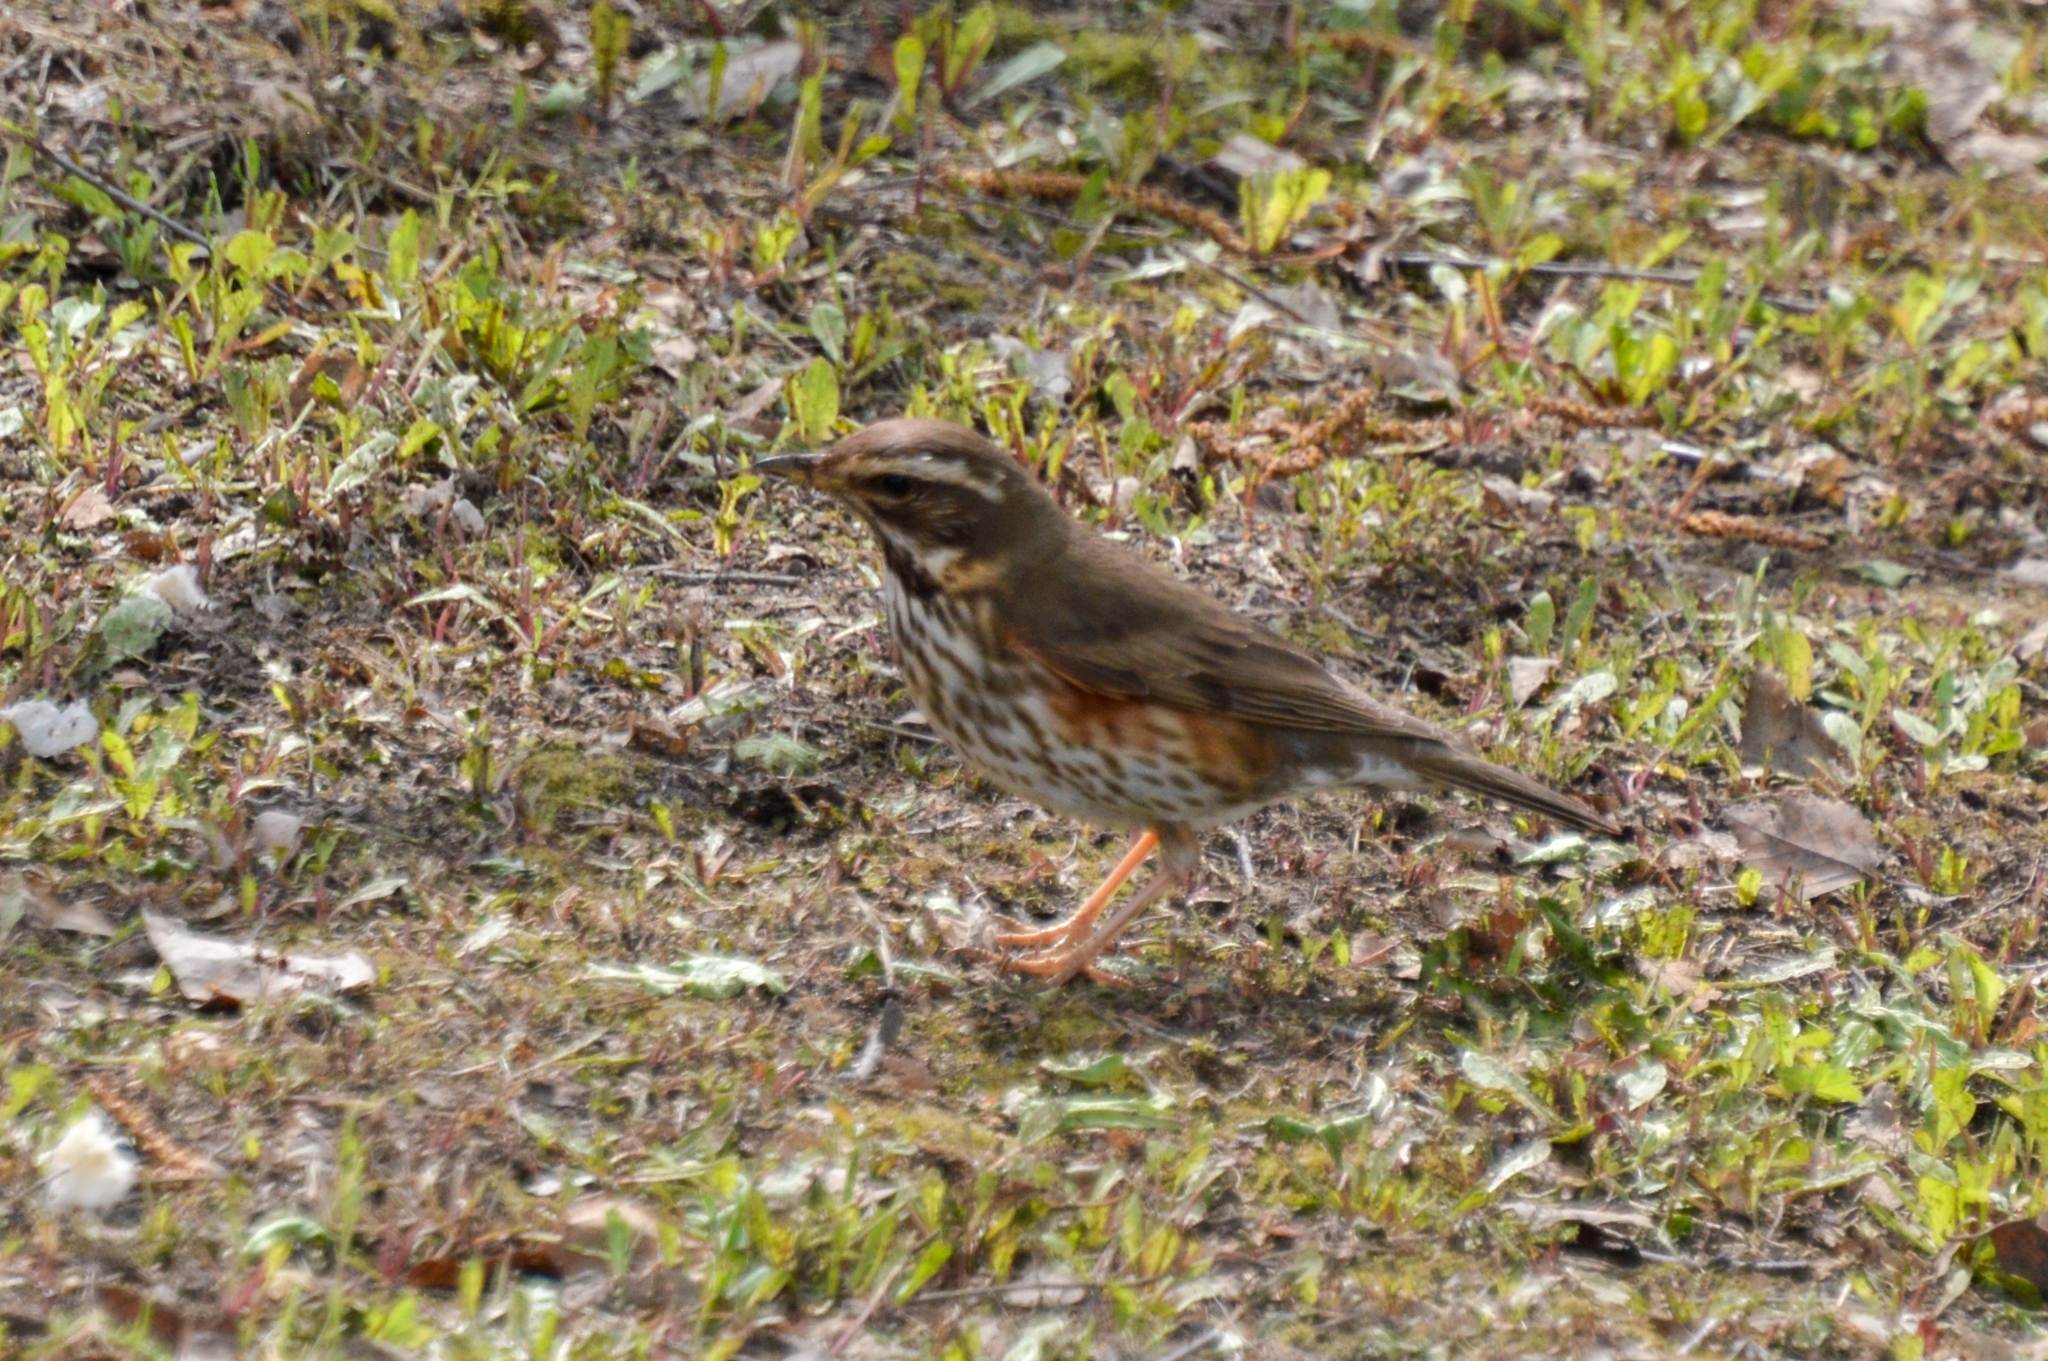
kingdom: Animalia
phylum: Chordata
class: Aves
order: Passeriformes
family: Turdidae
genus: Turdus
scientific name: Turdus iliacus
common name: Redwing
